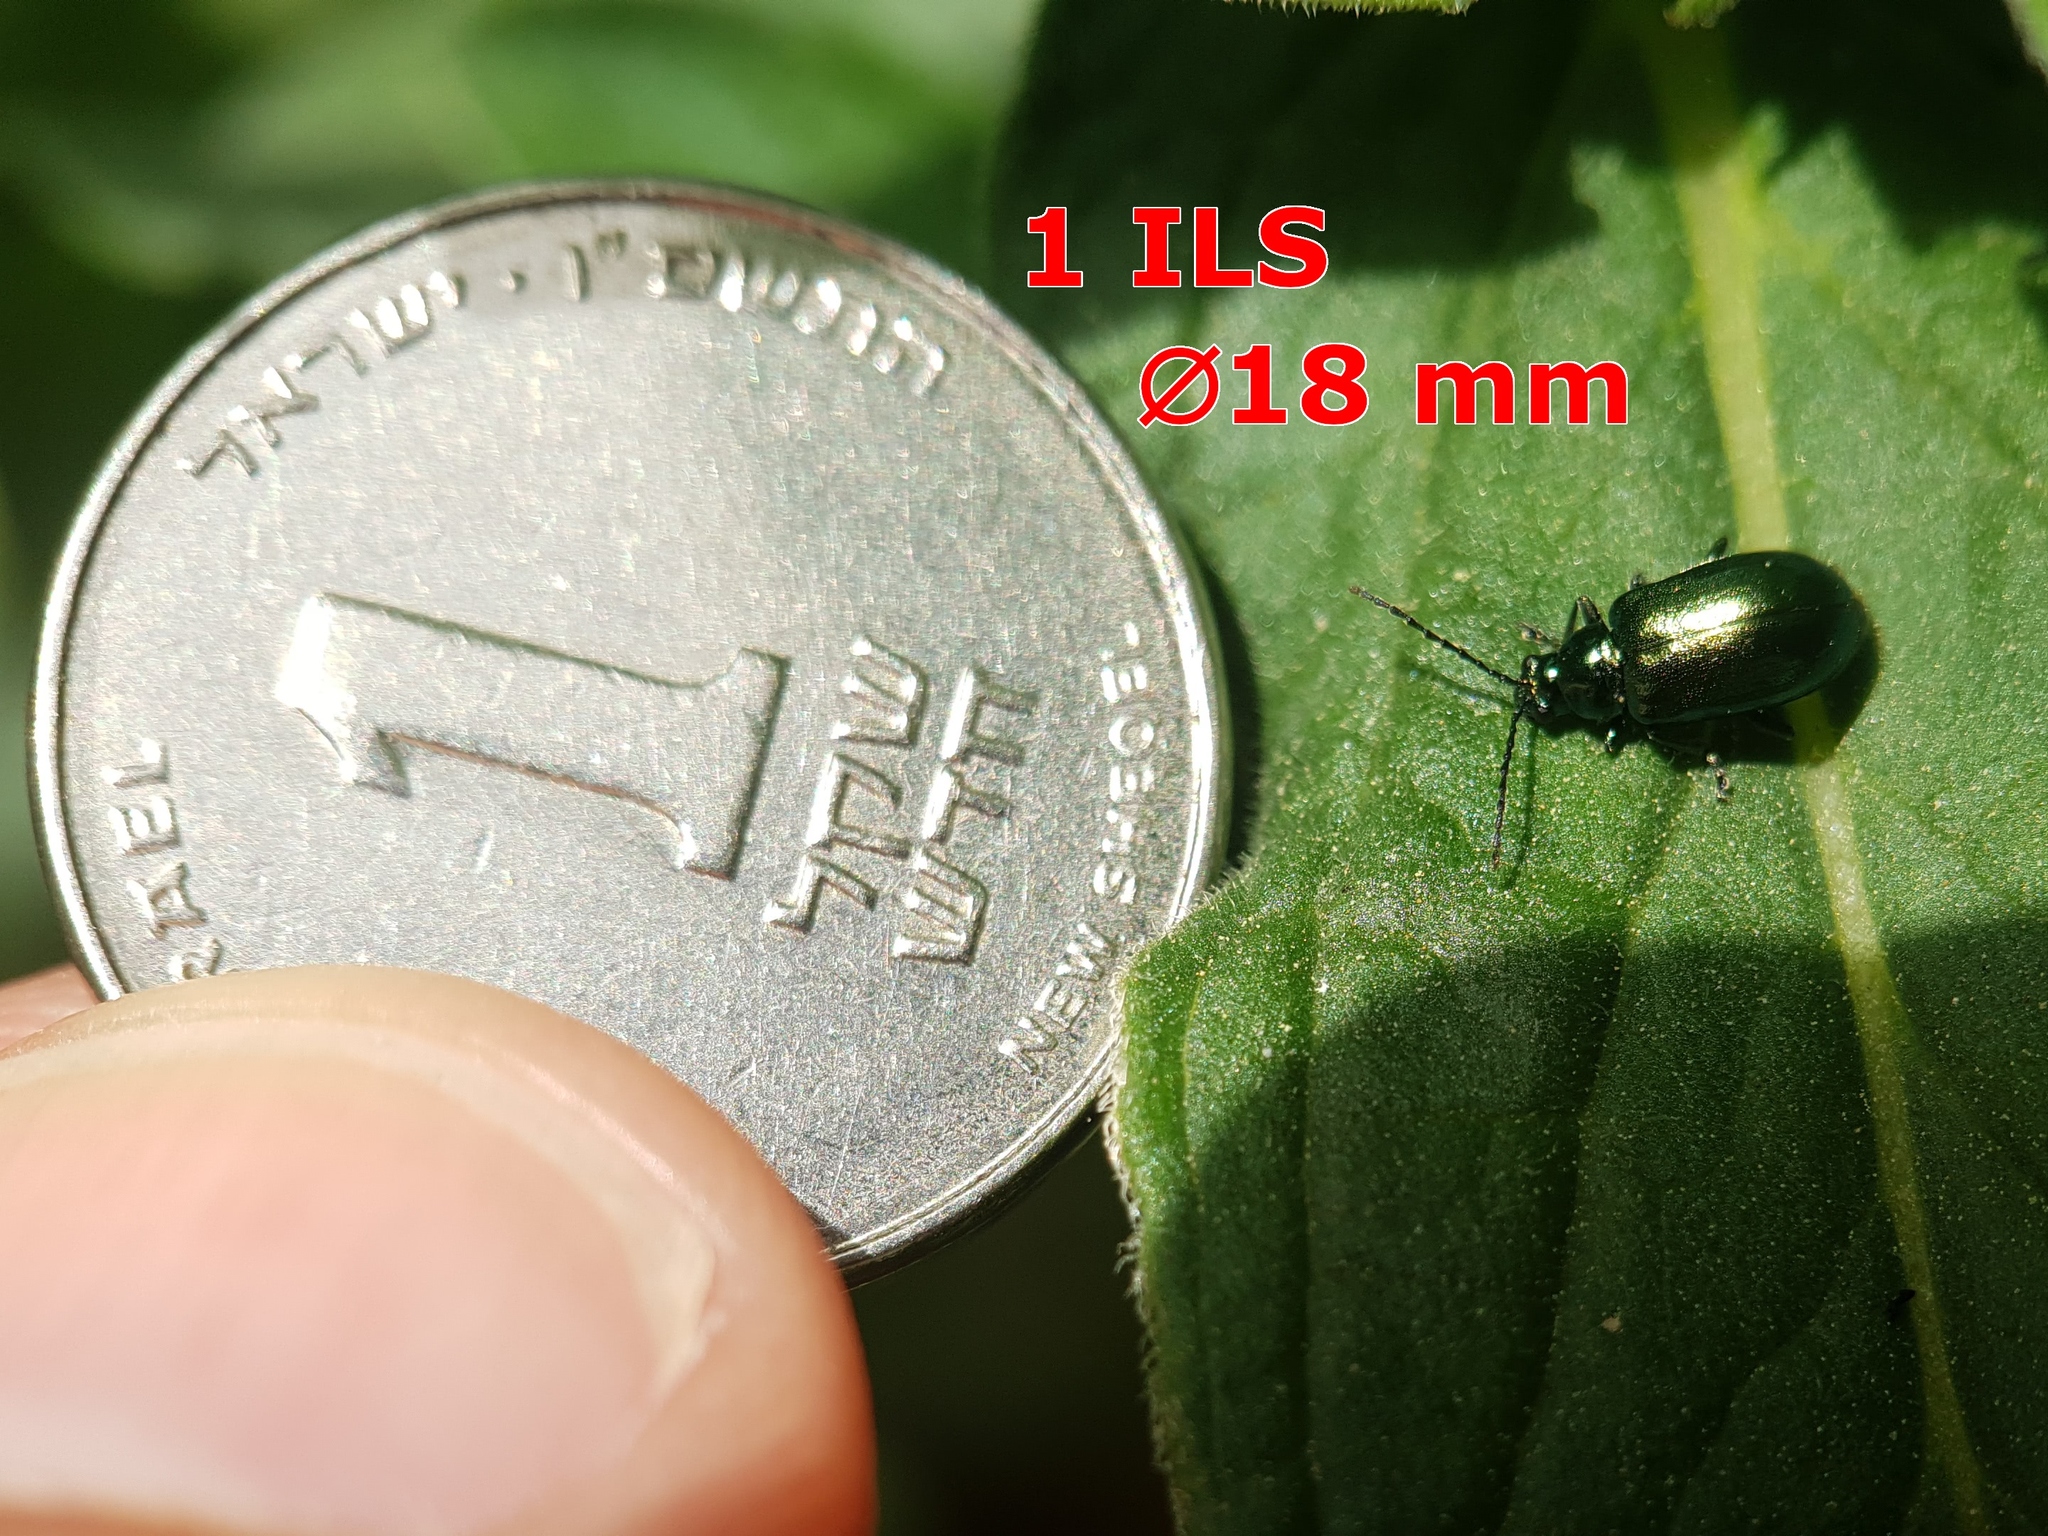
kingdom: Animalia
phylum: Arthropoda
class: Insecta
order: Coleoptera
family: Chrysomelidae
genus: Smaragdina
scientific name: Smaragdina
